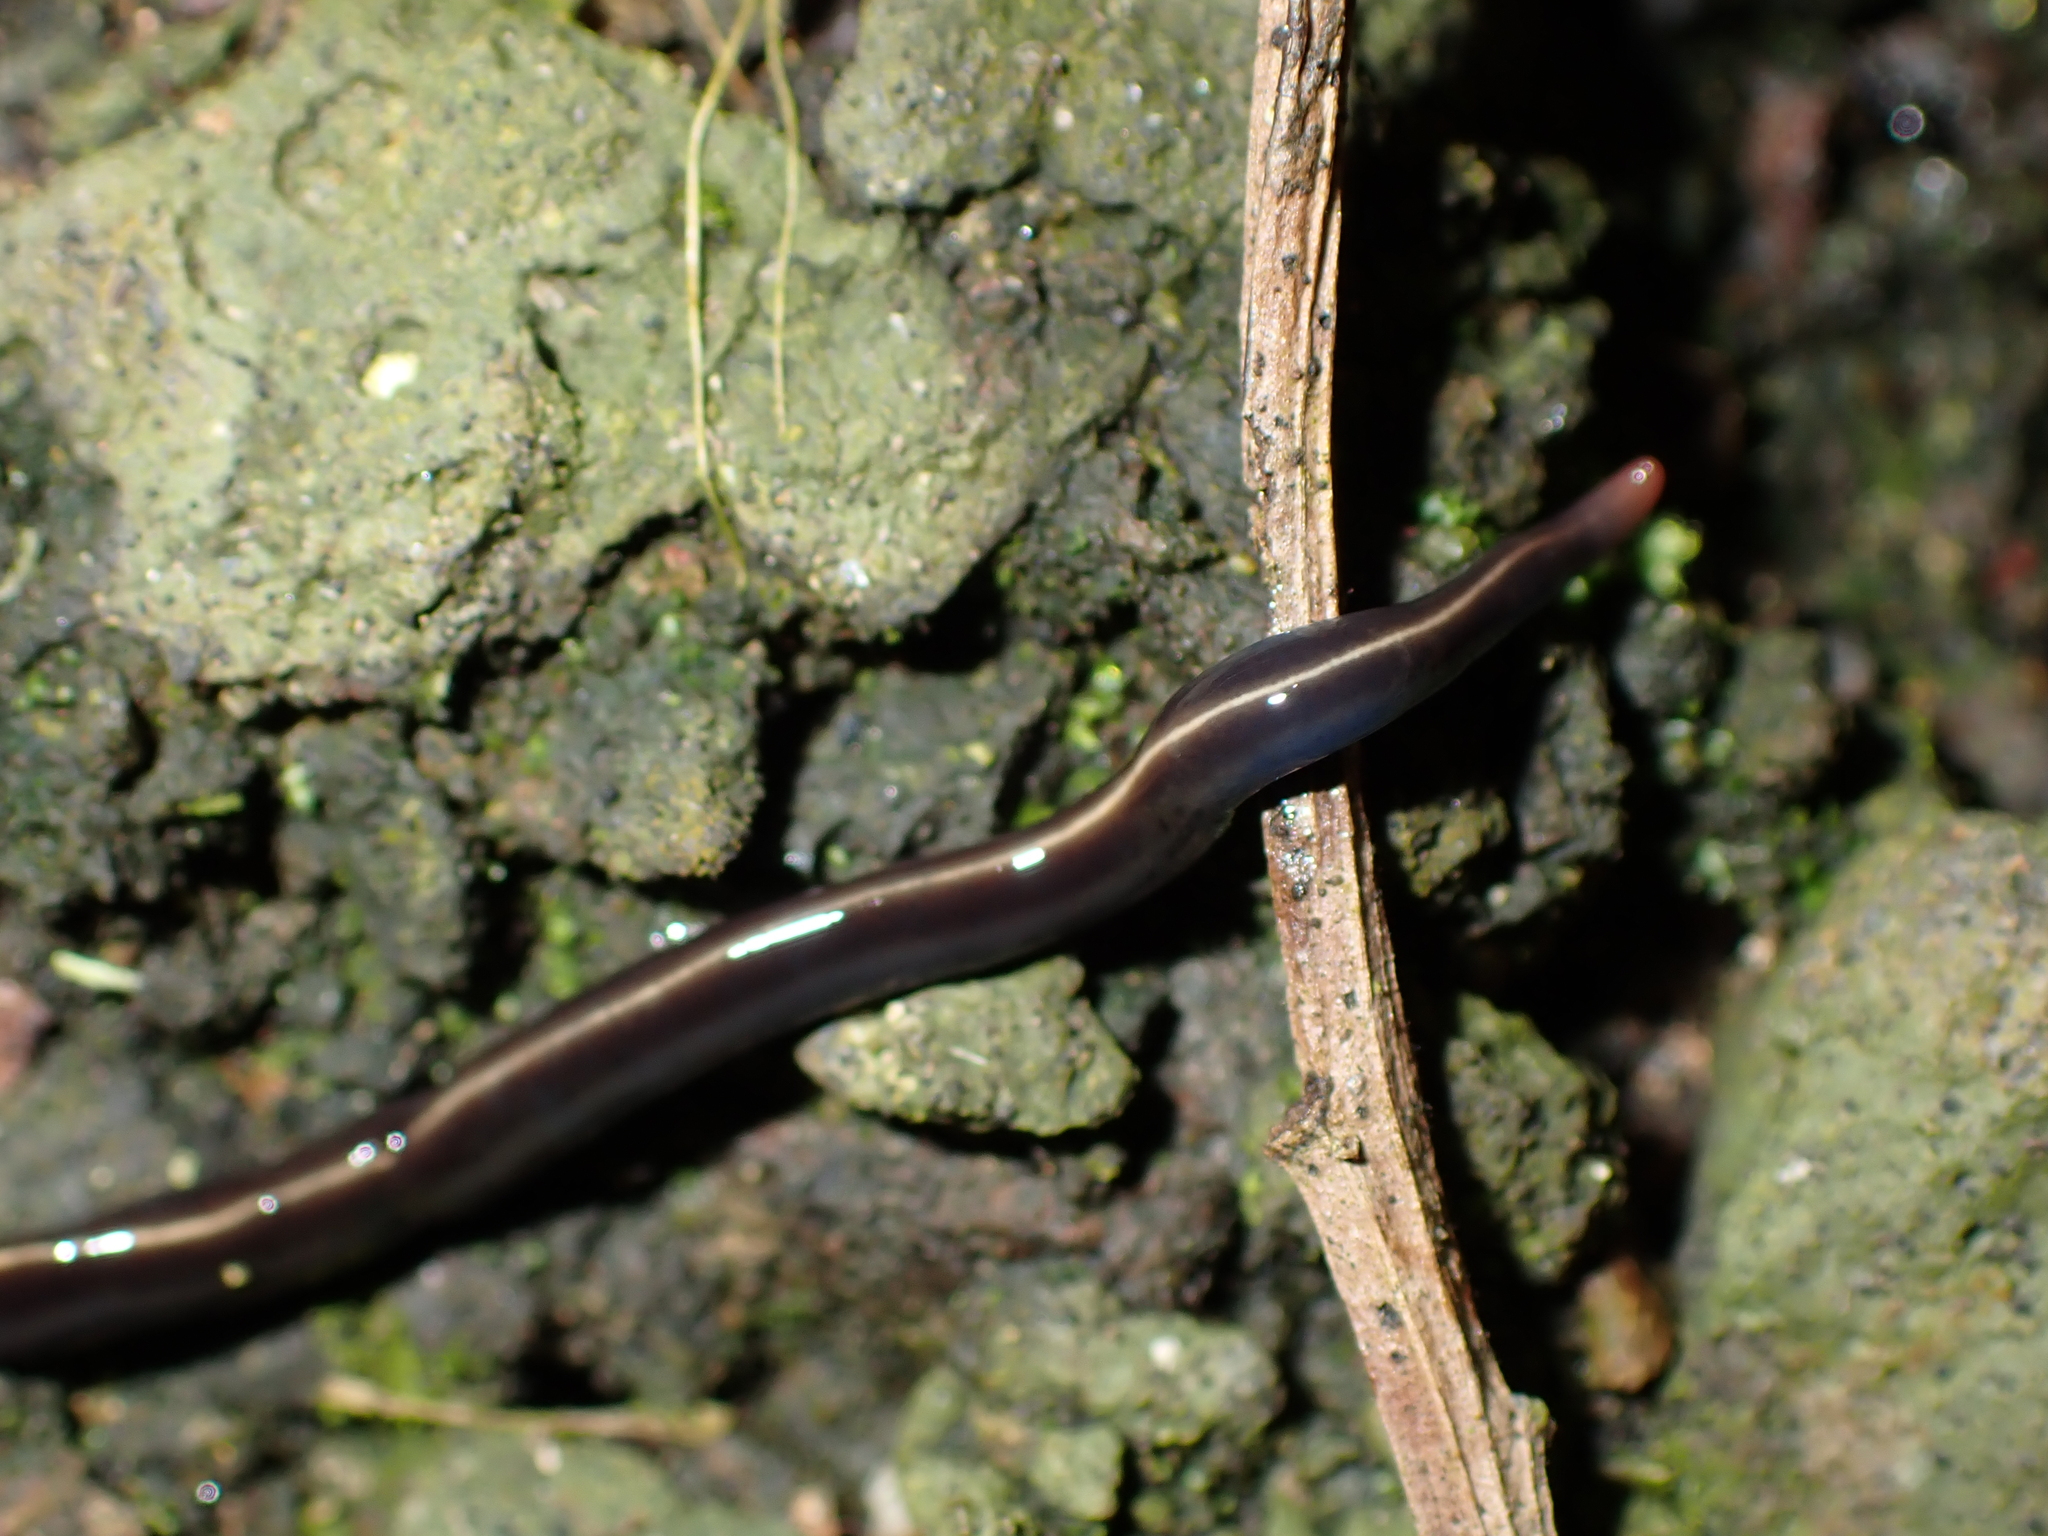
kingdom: Animalia
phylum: Platyhelminthes
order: Tricladida
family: Geoplanidae
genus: Caenoplana
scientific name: Caenoplana coerulea
